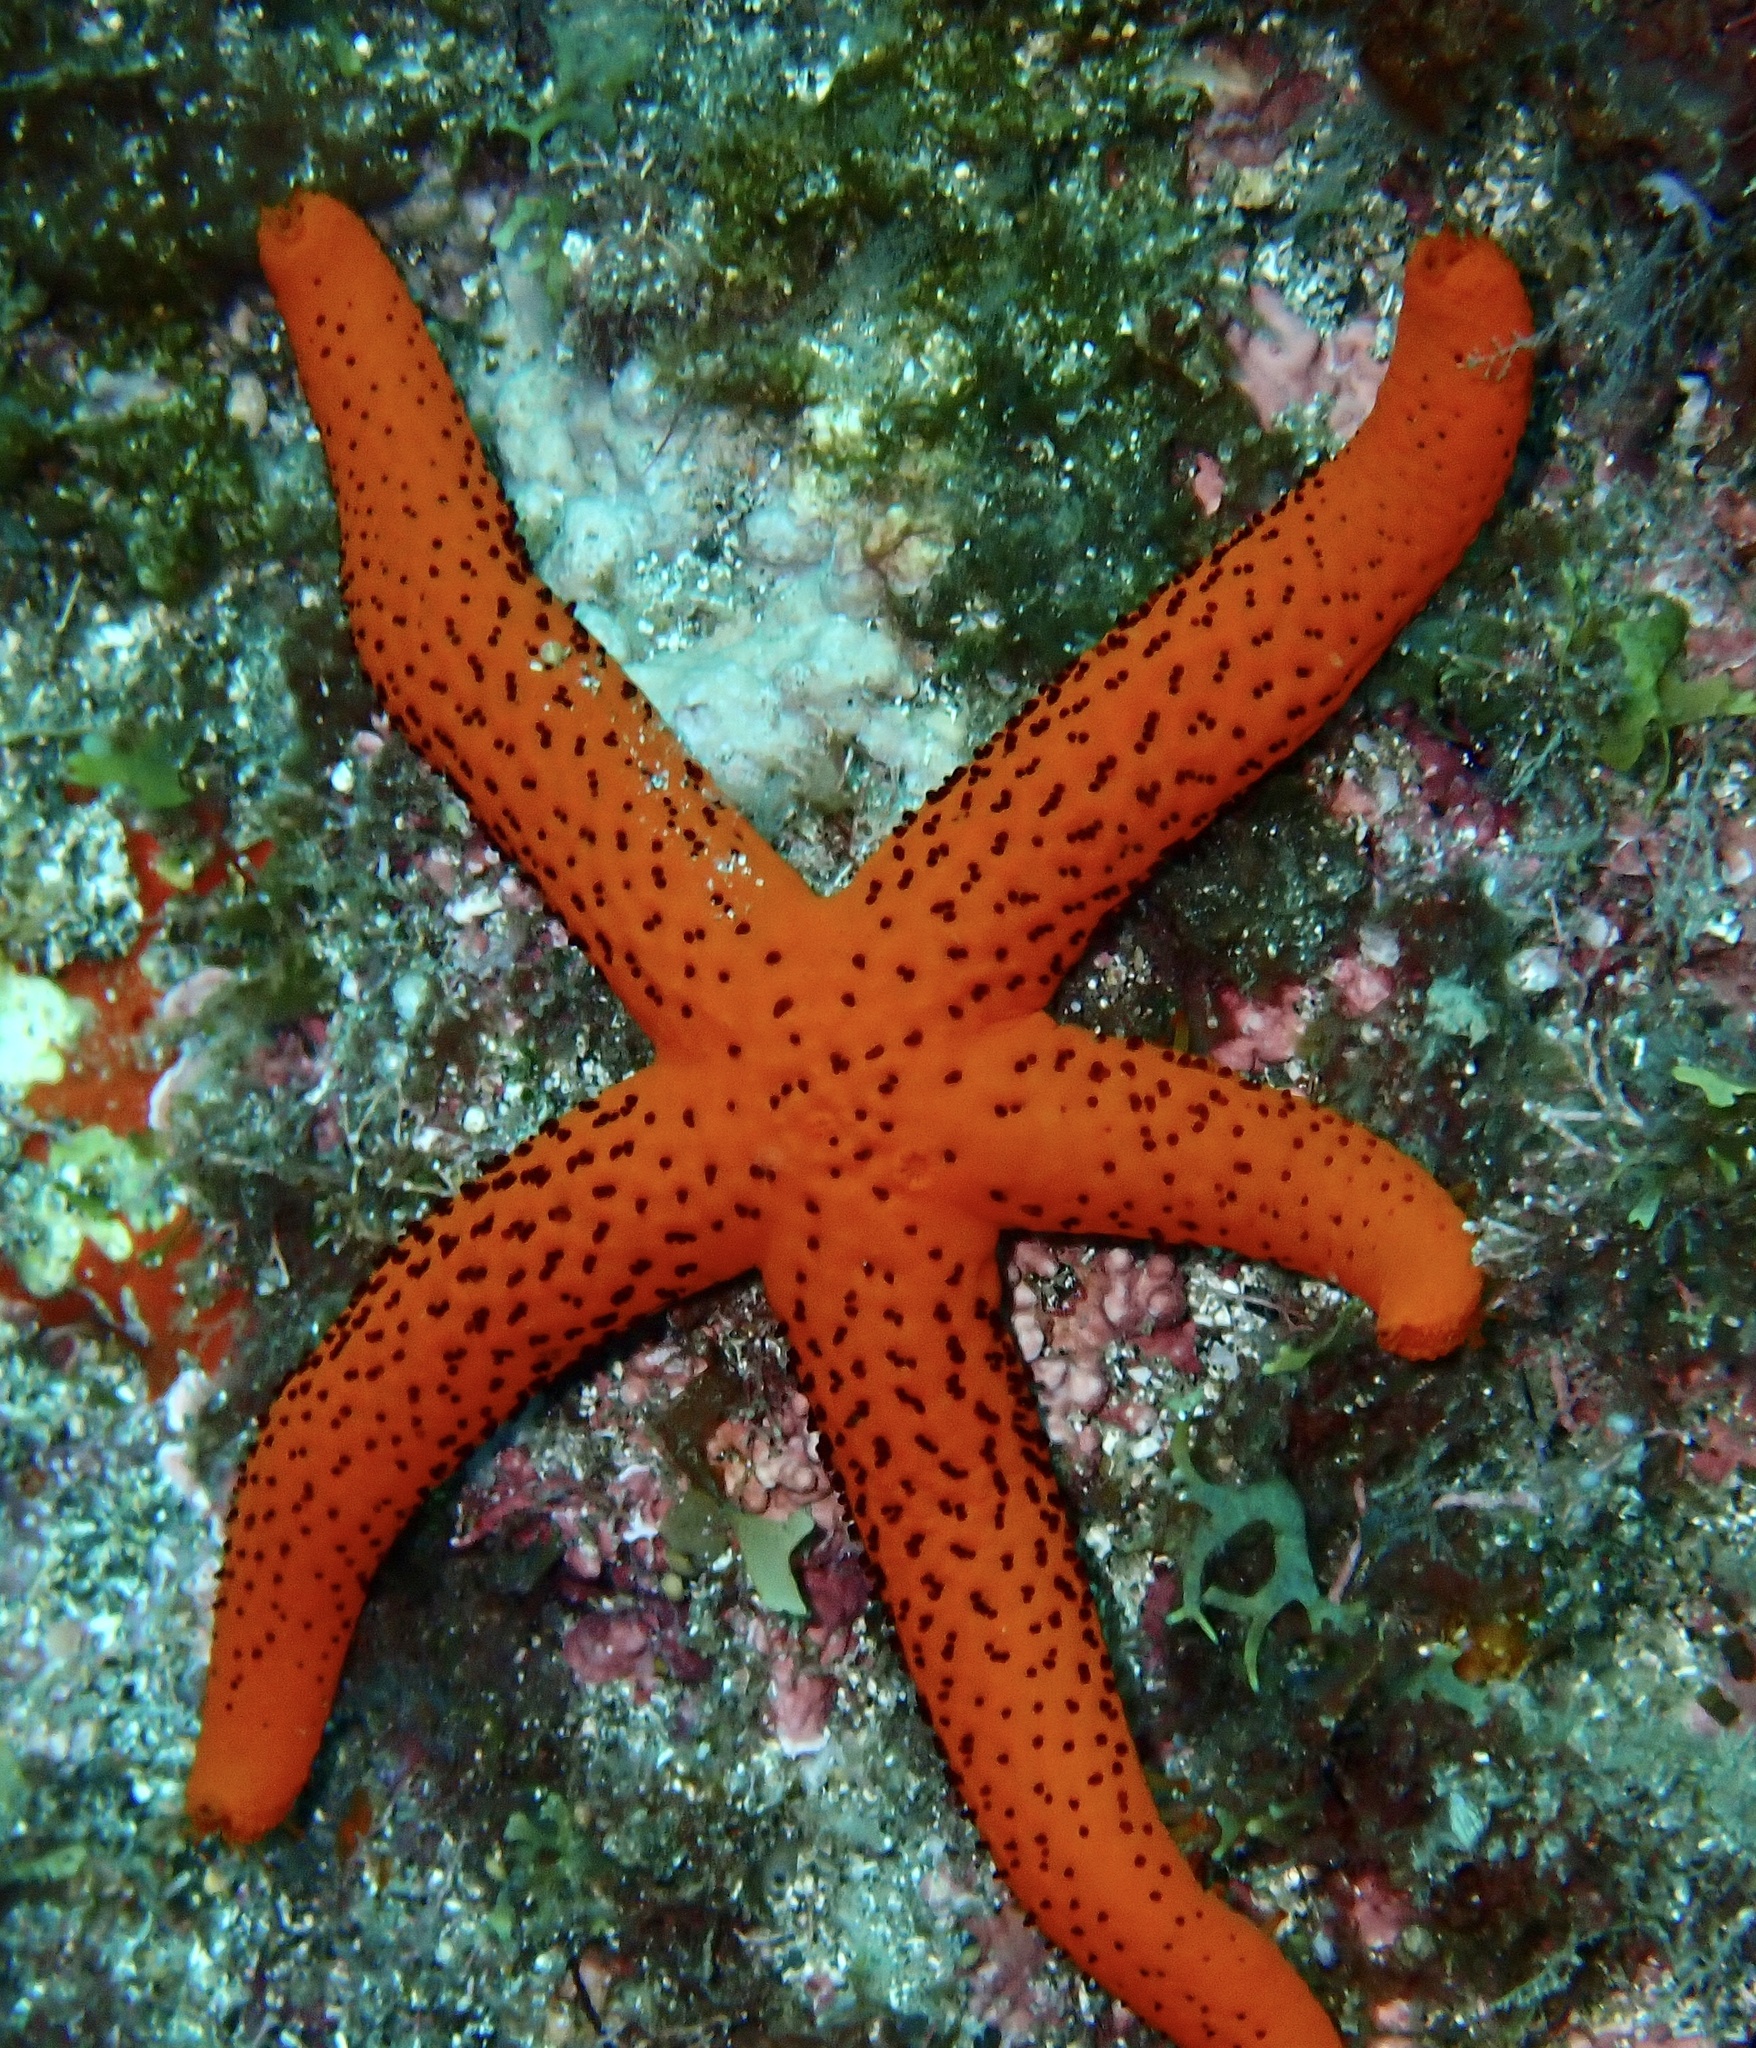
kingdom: Animalia
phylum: Echinodermata
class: Asteroidea
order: Spinulosida
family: Echinasteridae
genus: Echinaster
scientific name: Echinaster sepositus
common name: Red starfish
